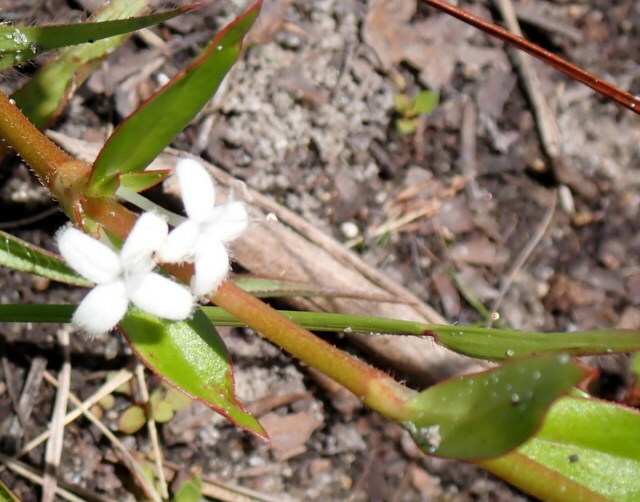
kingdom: Plantae
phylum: Tracheophyta
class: Magnoliopsida
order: Gentianales
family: Rubiaceae
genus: Diodia
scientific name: Diodia virginiana
